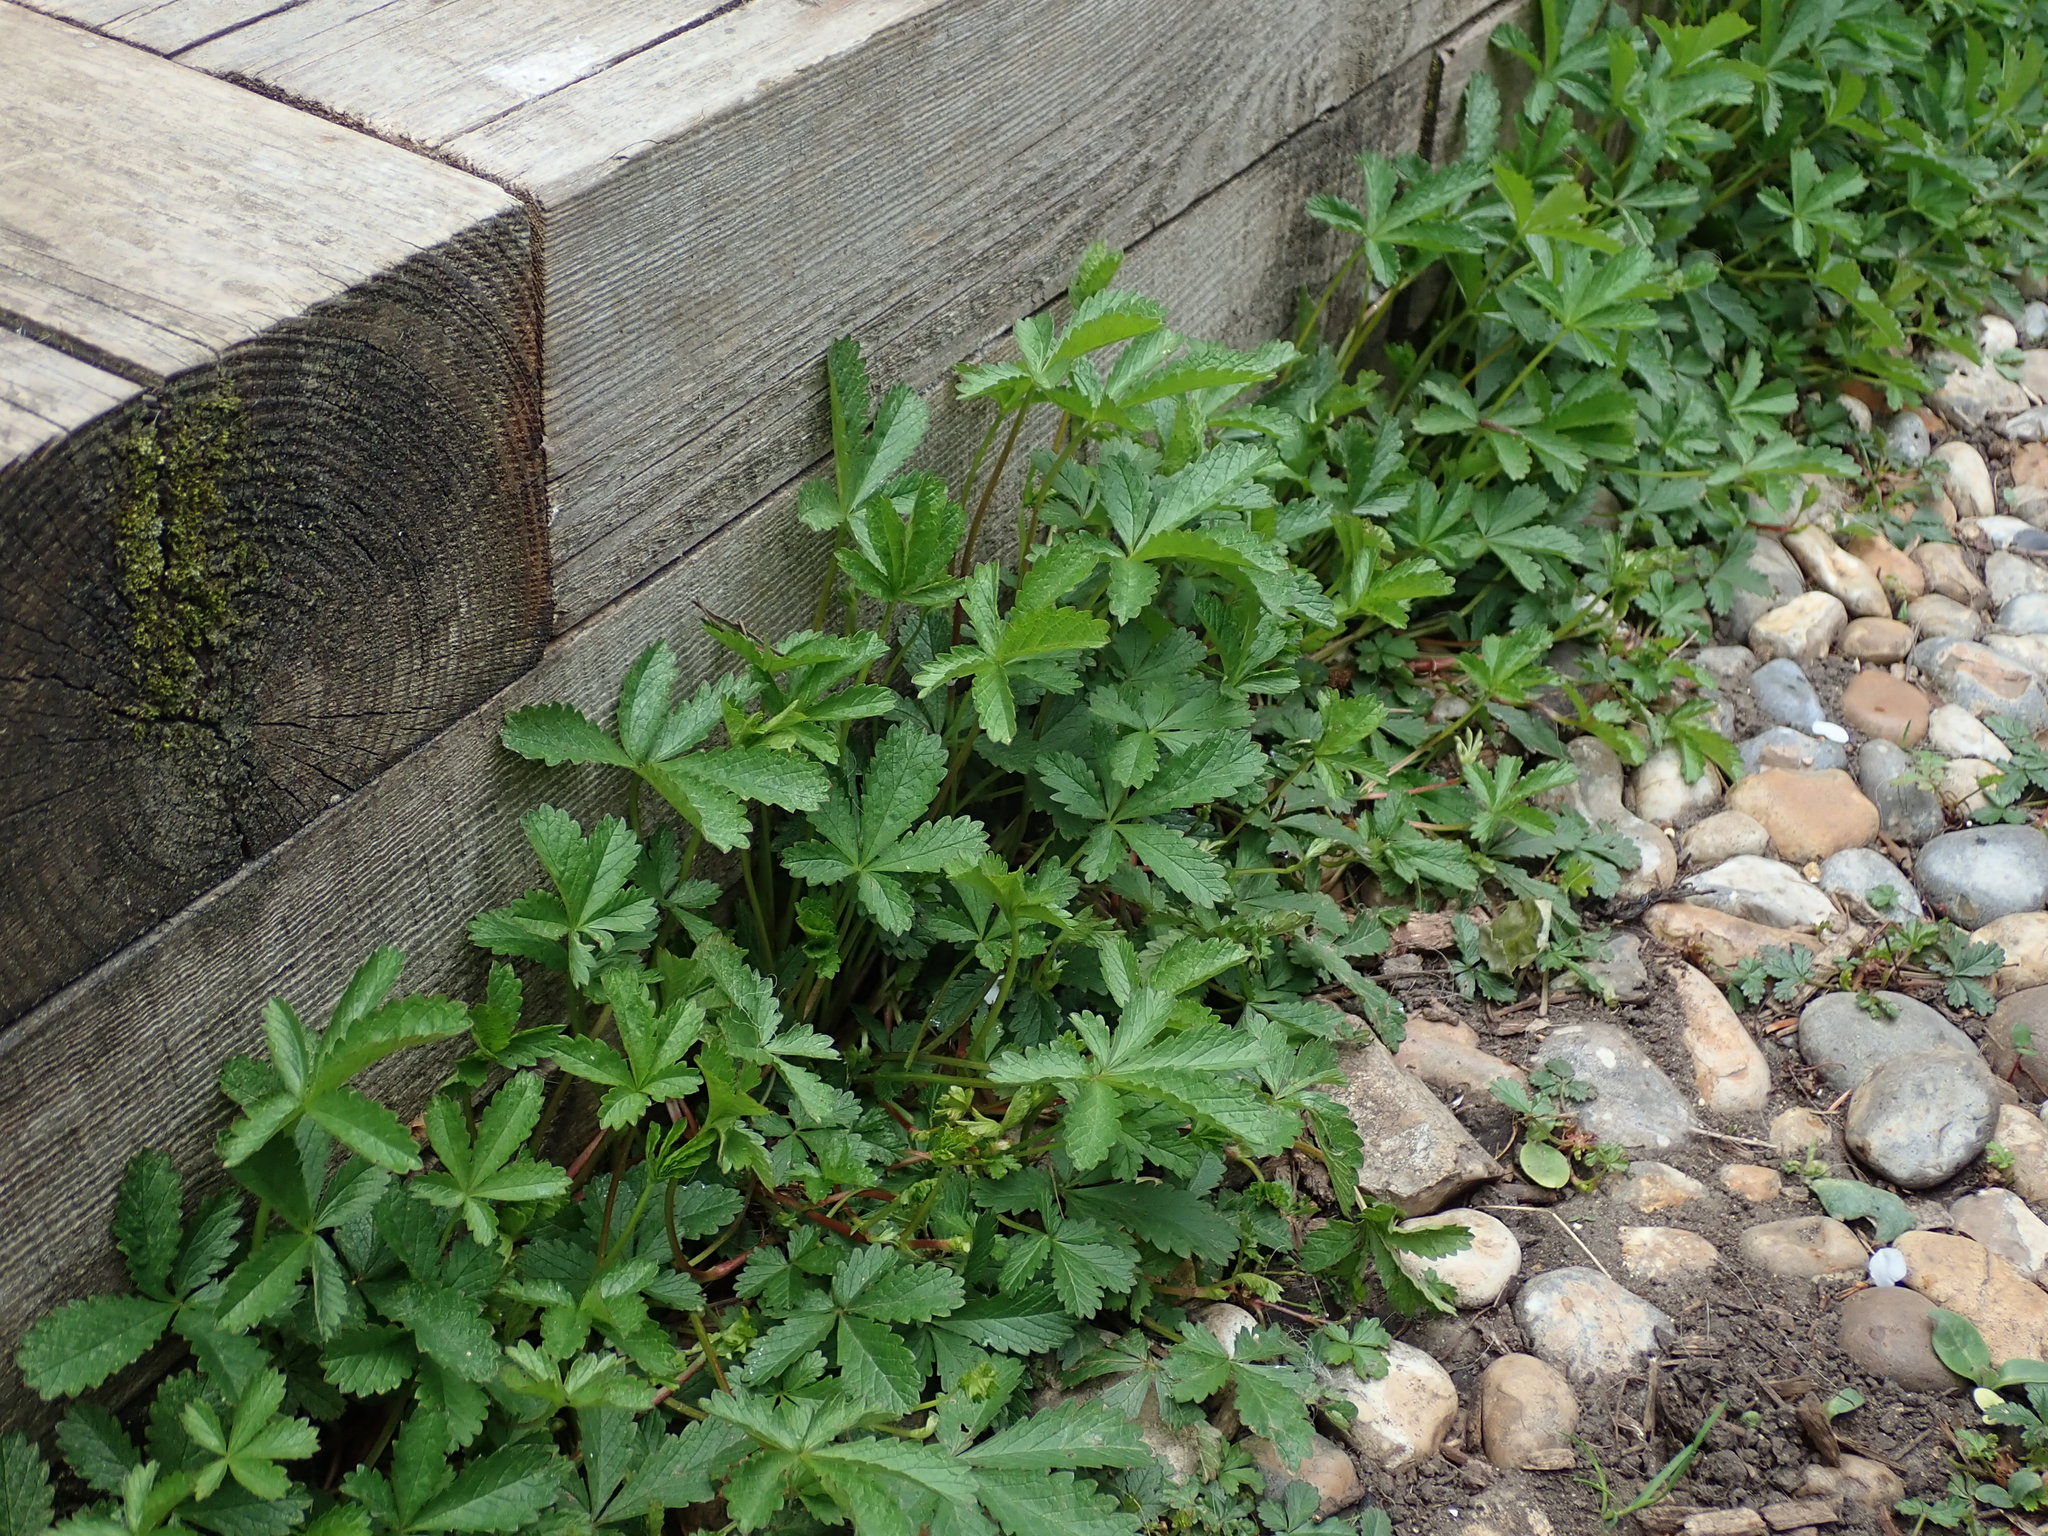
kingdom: Plantae
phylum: Tracheophyta
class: Magnoliopsida
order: Rosales
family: Rosaceae
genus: Potentilla
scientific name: Potentilla reptans
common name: Creeping cinquefoil
